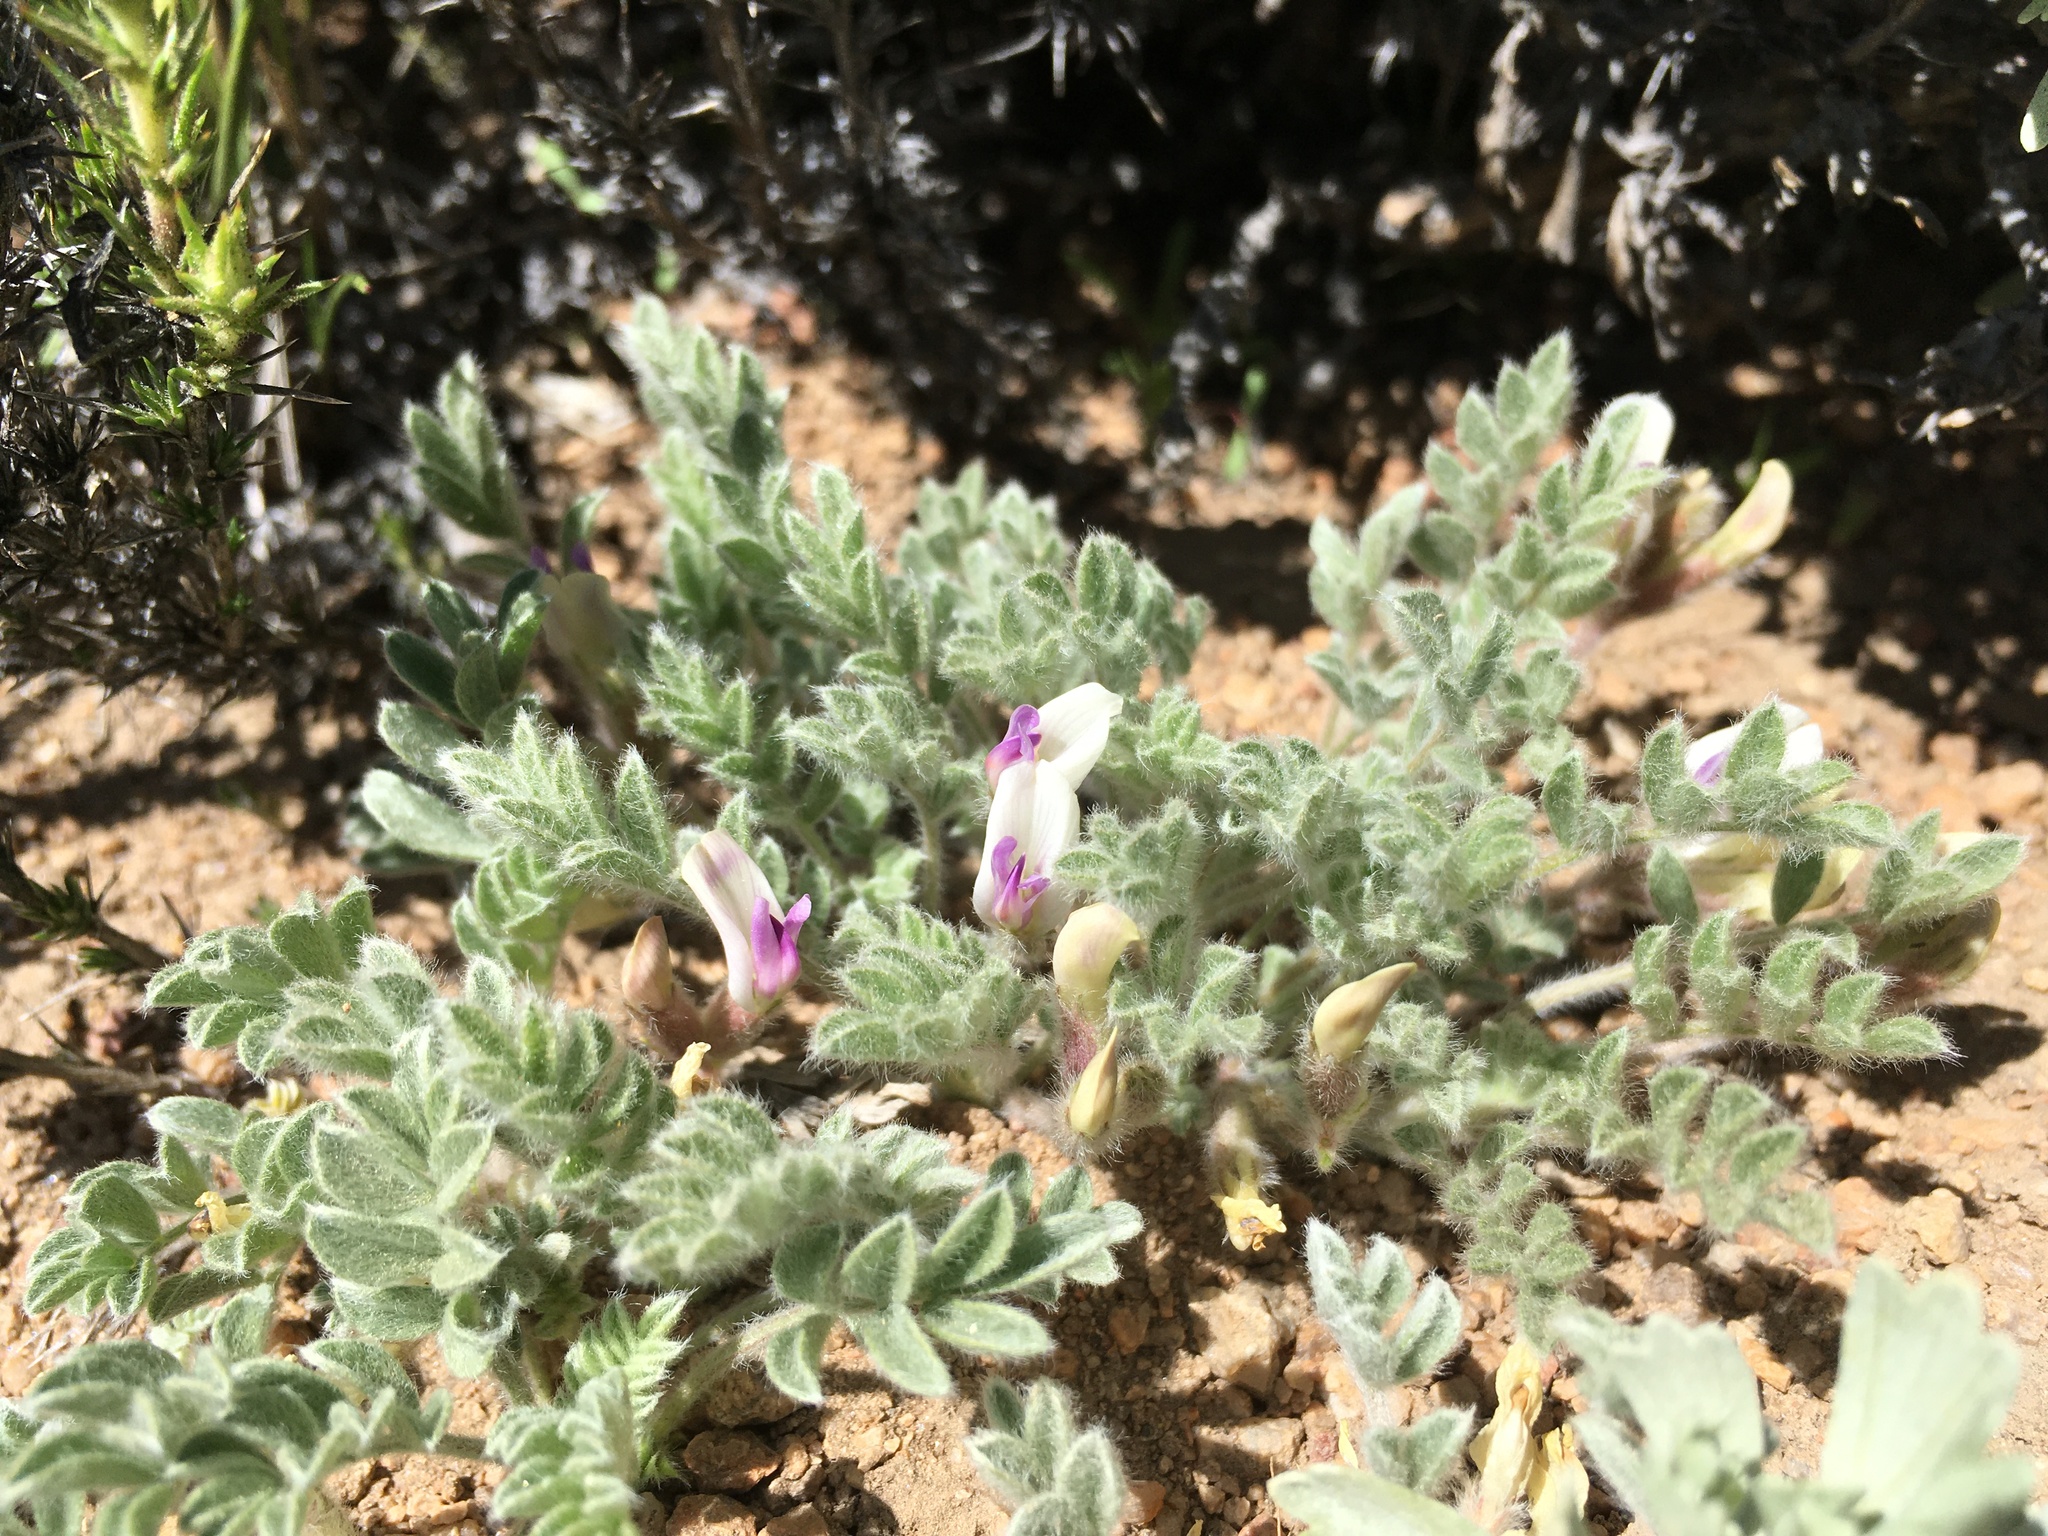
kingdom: Plantae
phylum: Tracheophyta
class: Magnoliopsida
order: Fabales
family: Fabaceae
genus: Astragalus
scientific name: Astragalus purshii
